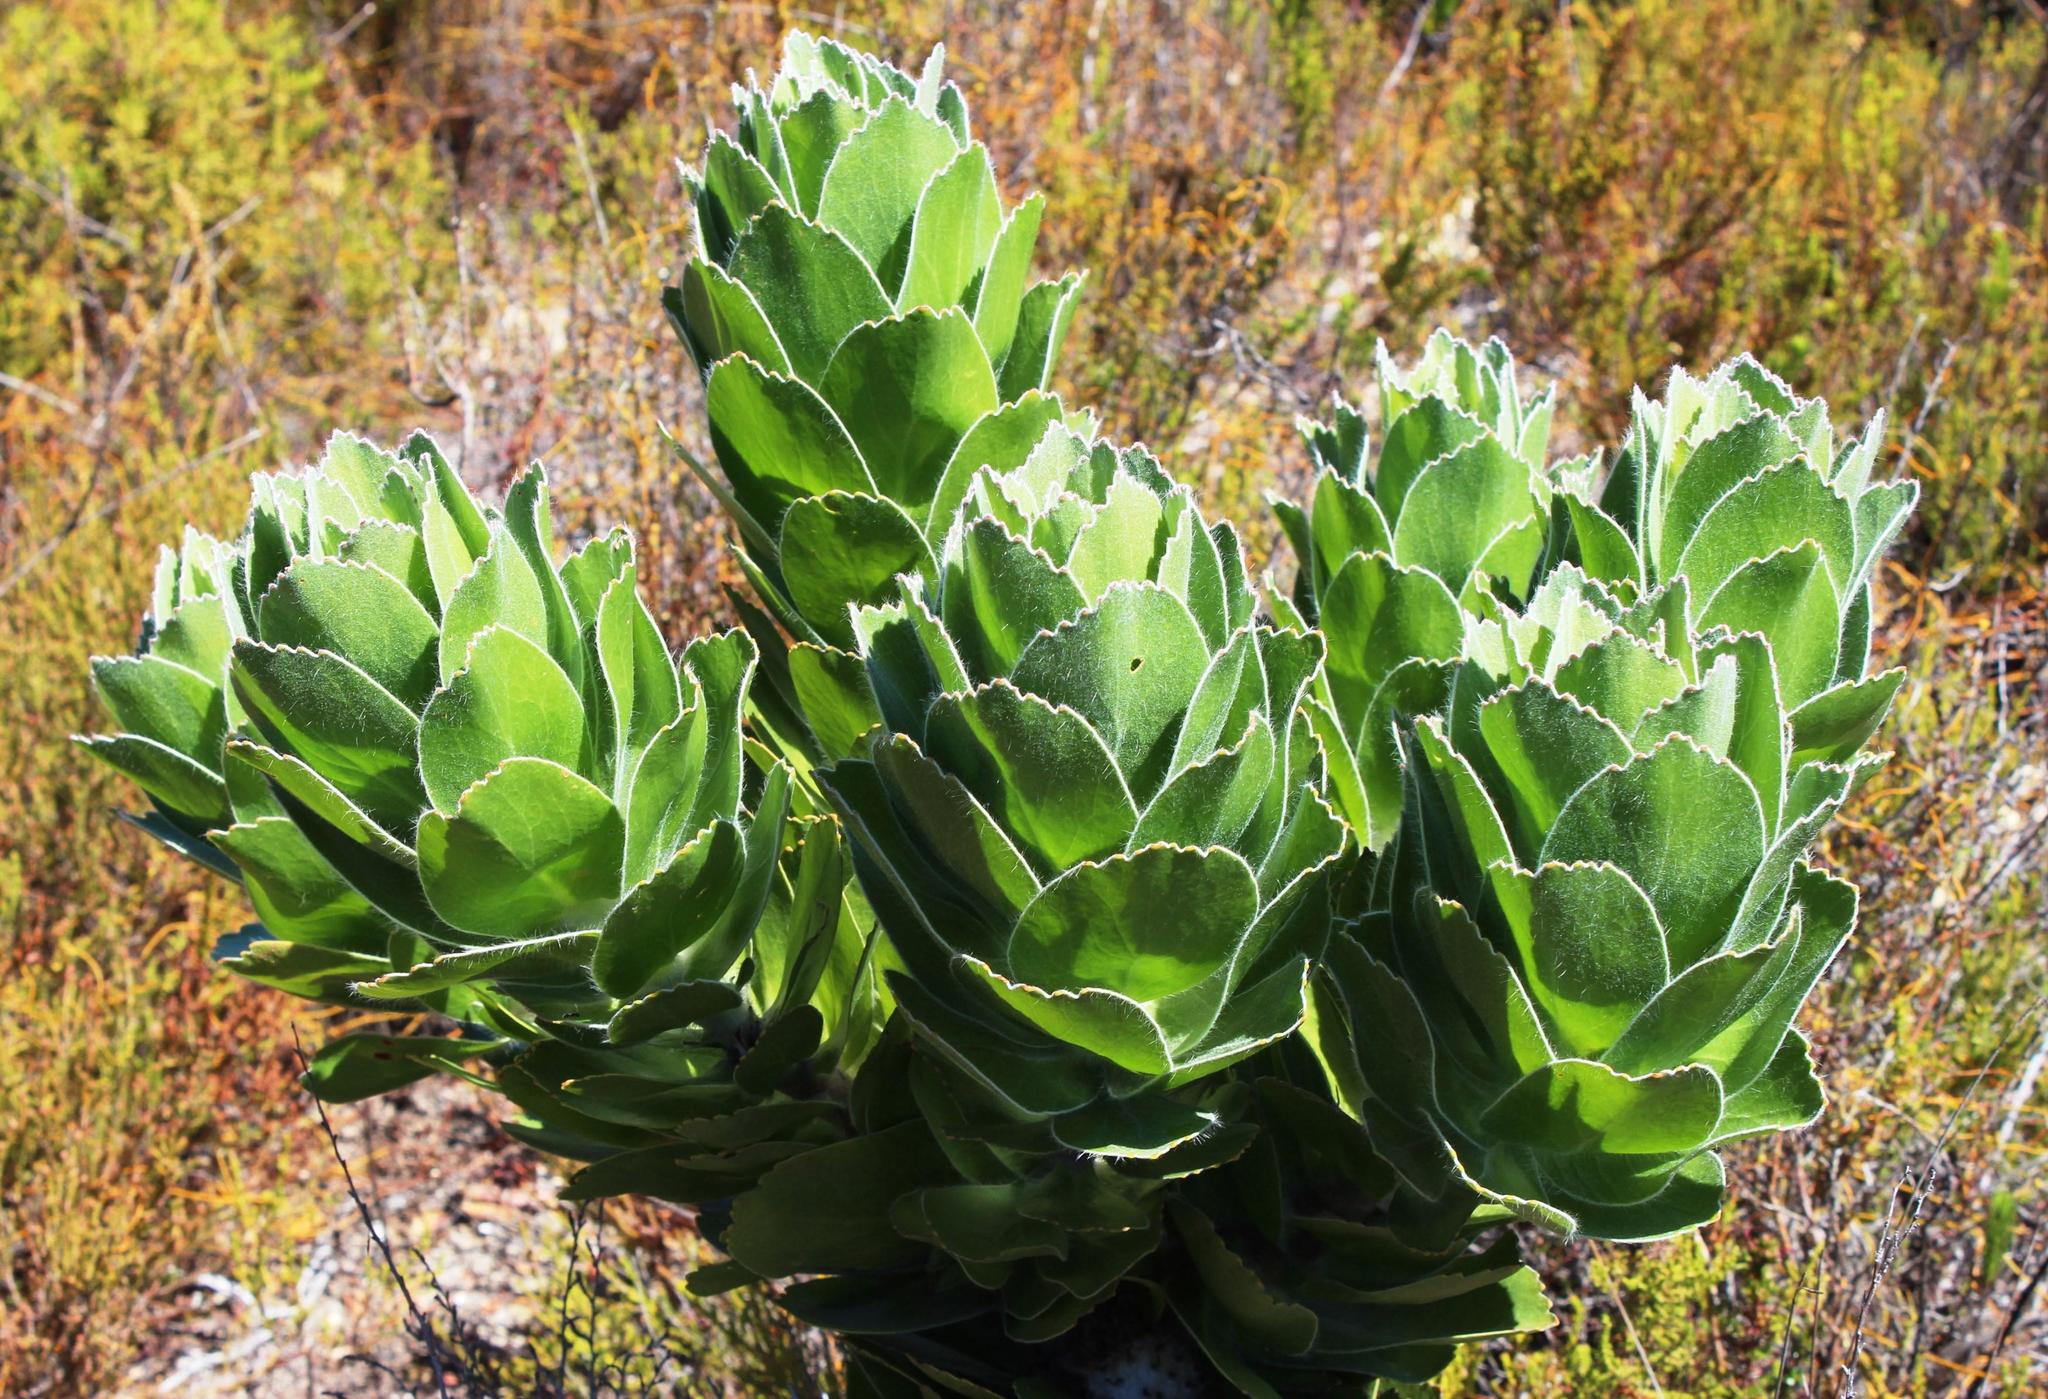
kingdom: Plantae
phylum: Tracheophyta
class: Magnoliopsida
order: Proteales
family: Proteaceae
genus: Leucospermum
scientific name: Leucospermum conocarpodendron
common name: Tree pincushion
